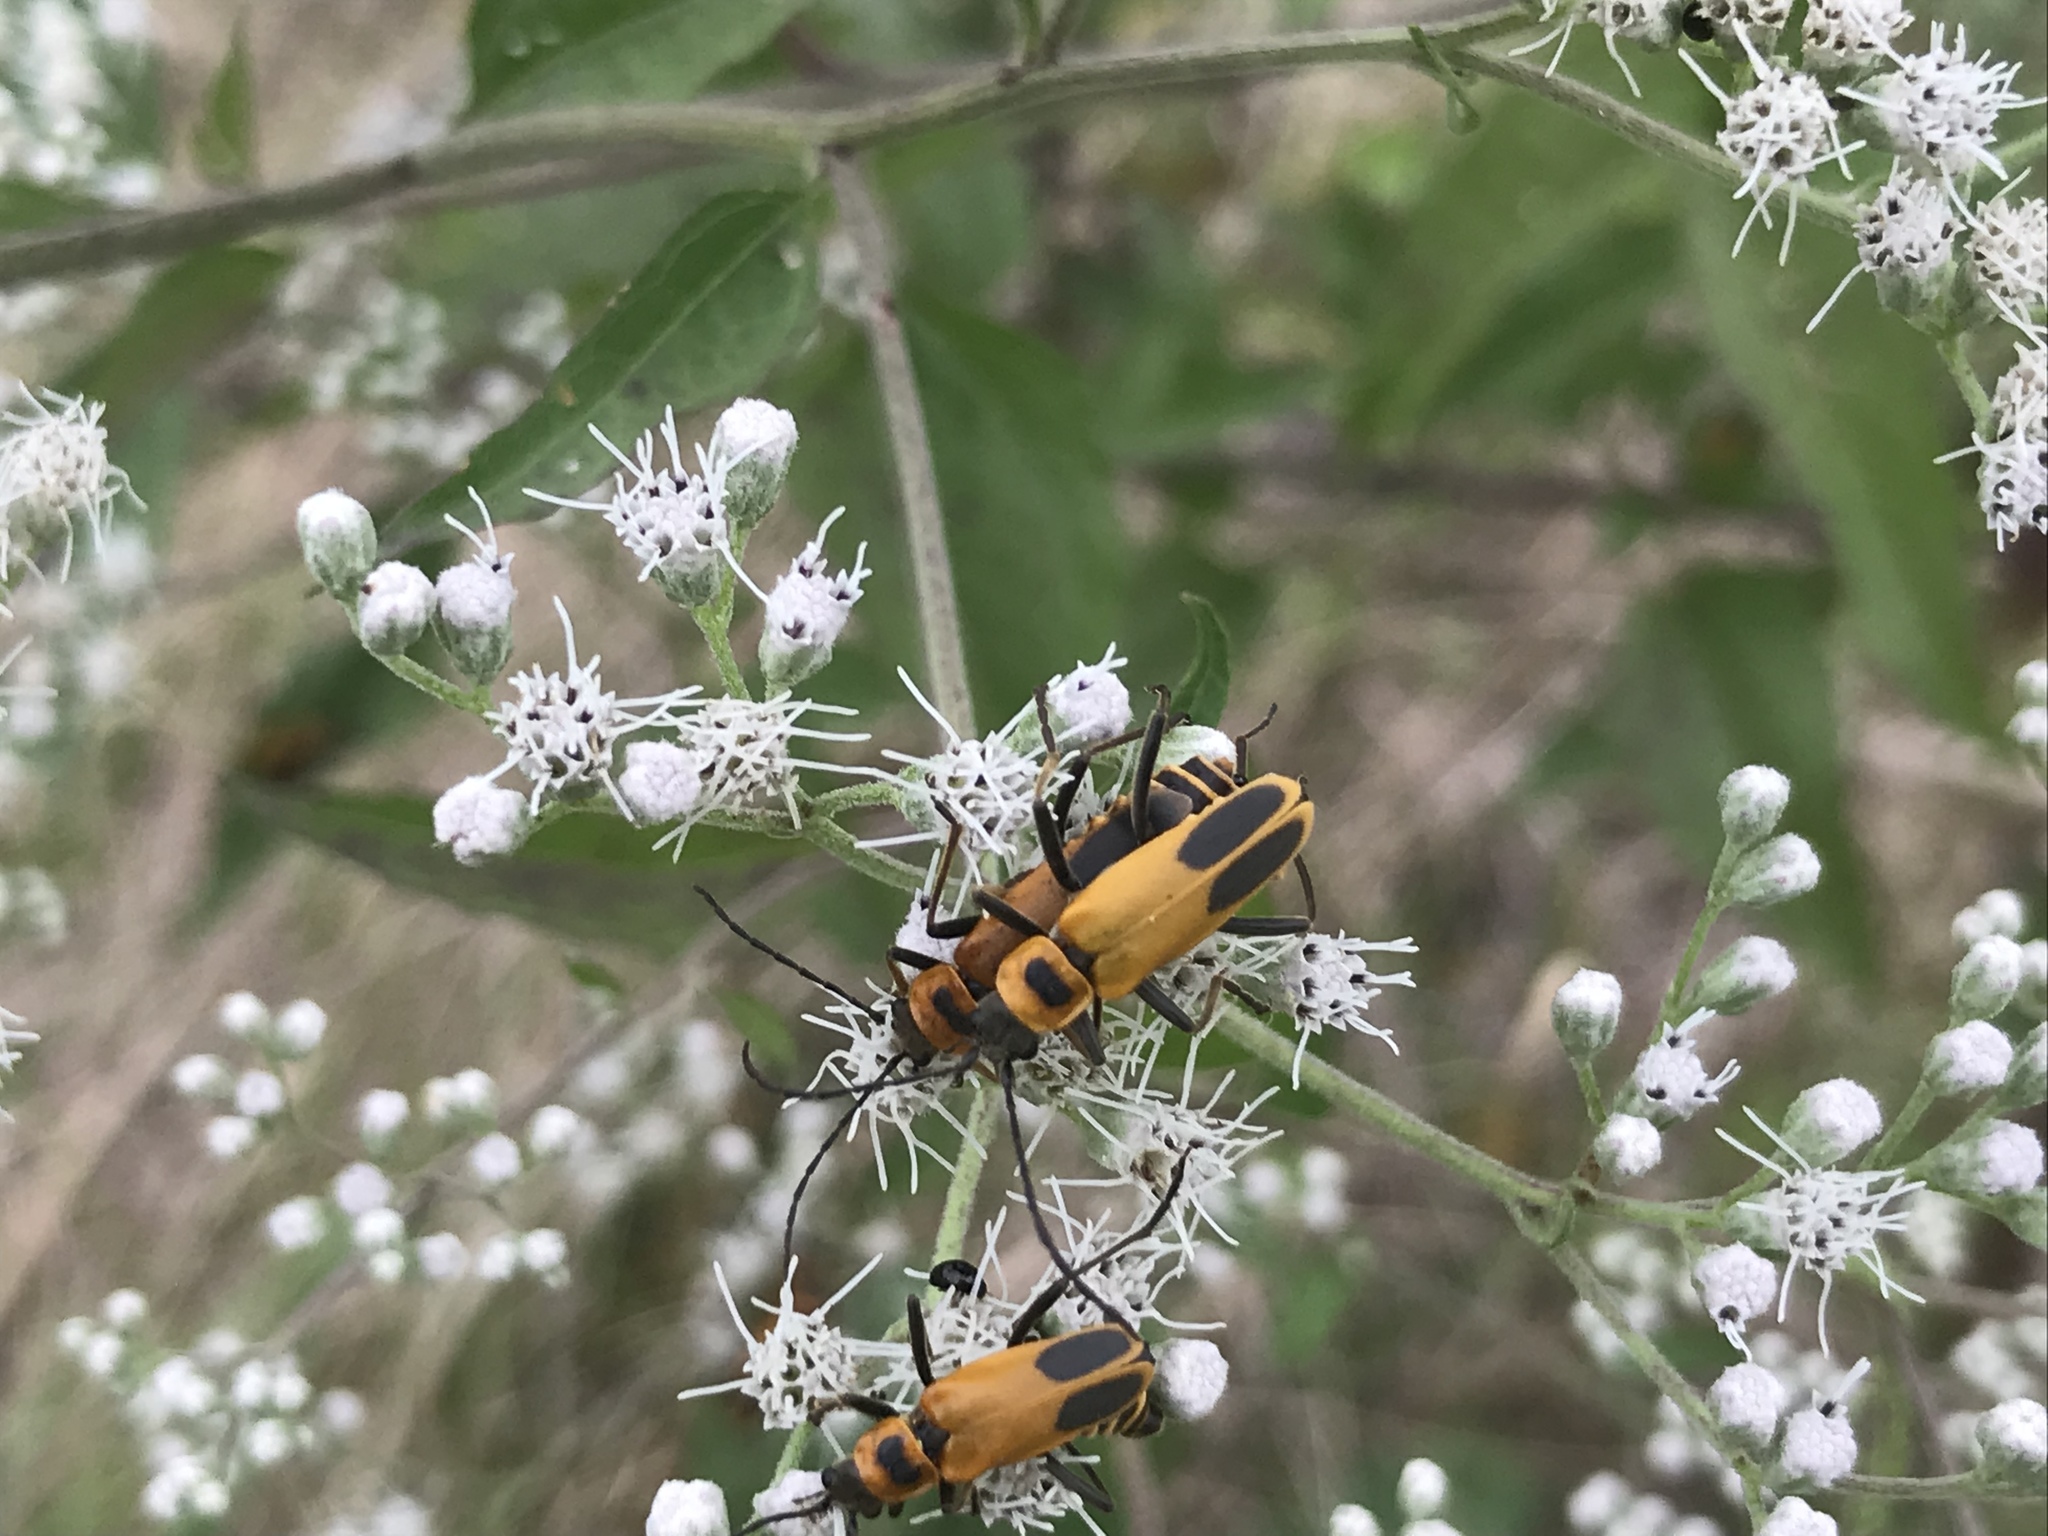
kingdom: Animalia
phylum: Arthropoda
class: Insecta
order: Coleoptera
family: Cantharidae
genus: Chauliognathus
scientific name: Chauliognathus pensylvanicus
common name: Goldenrod soldier beetle
